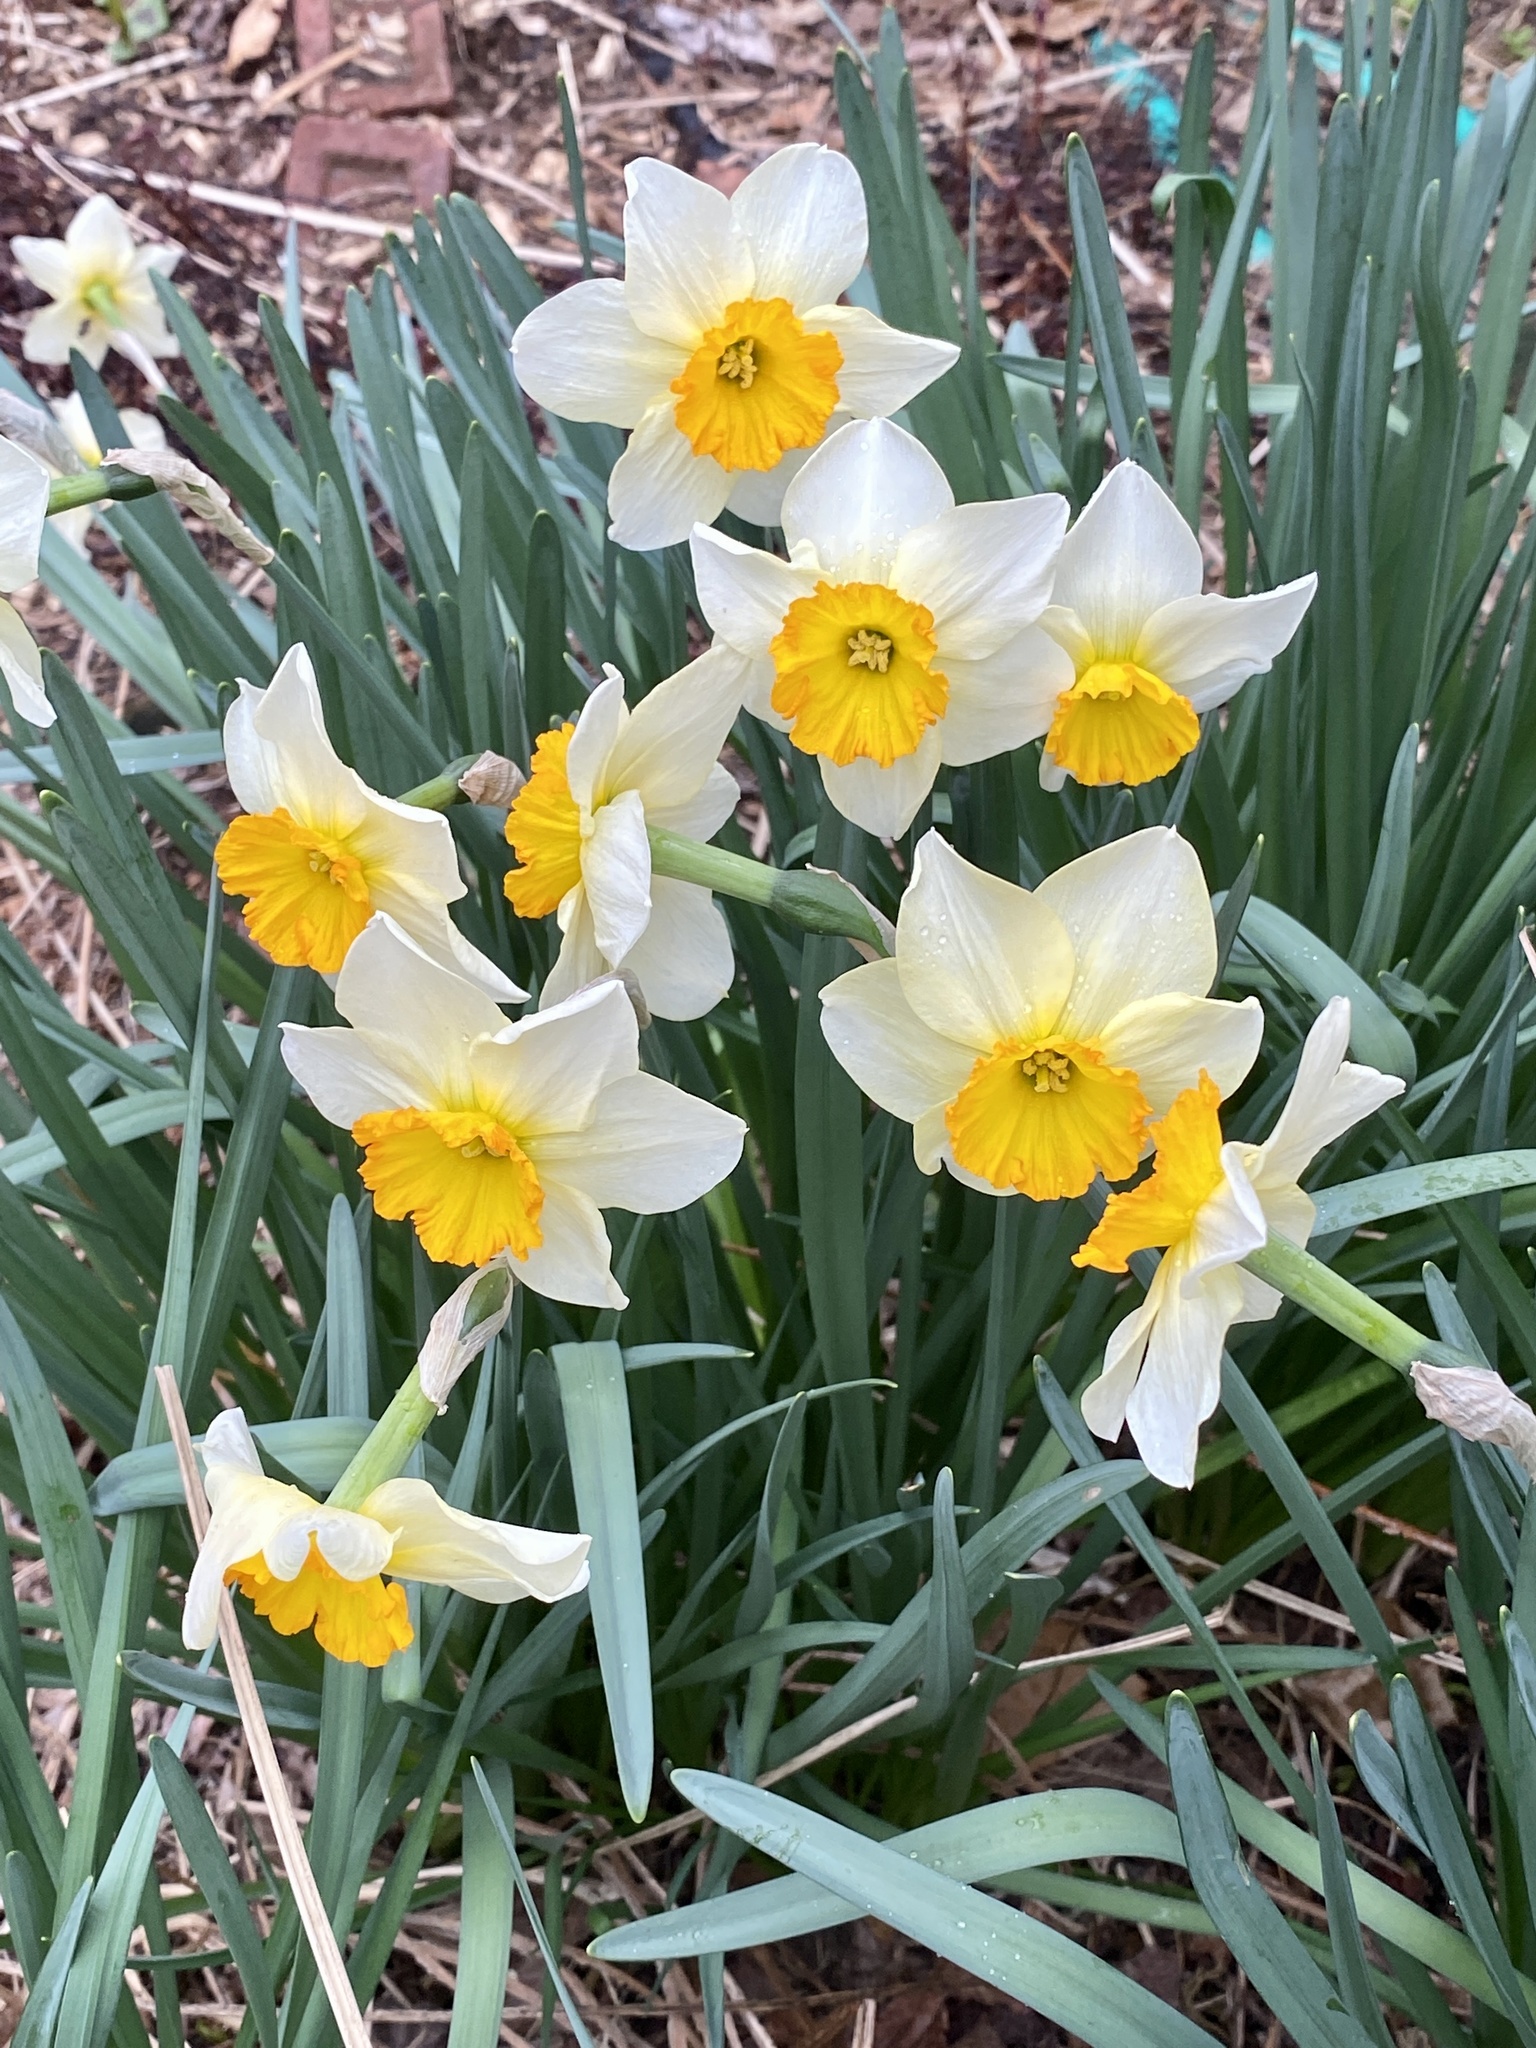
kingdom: Plantae
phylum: Tracheophyta
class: Liliopsida
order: Asparagales
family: Amaryllidaceae
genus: Narcissus
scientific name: Narcissus
